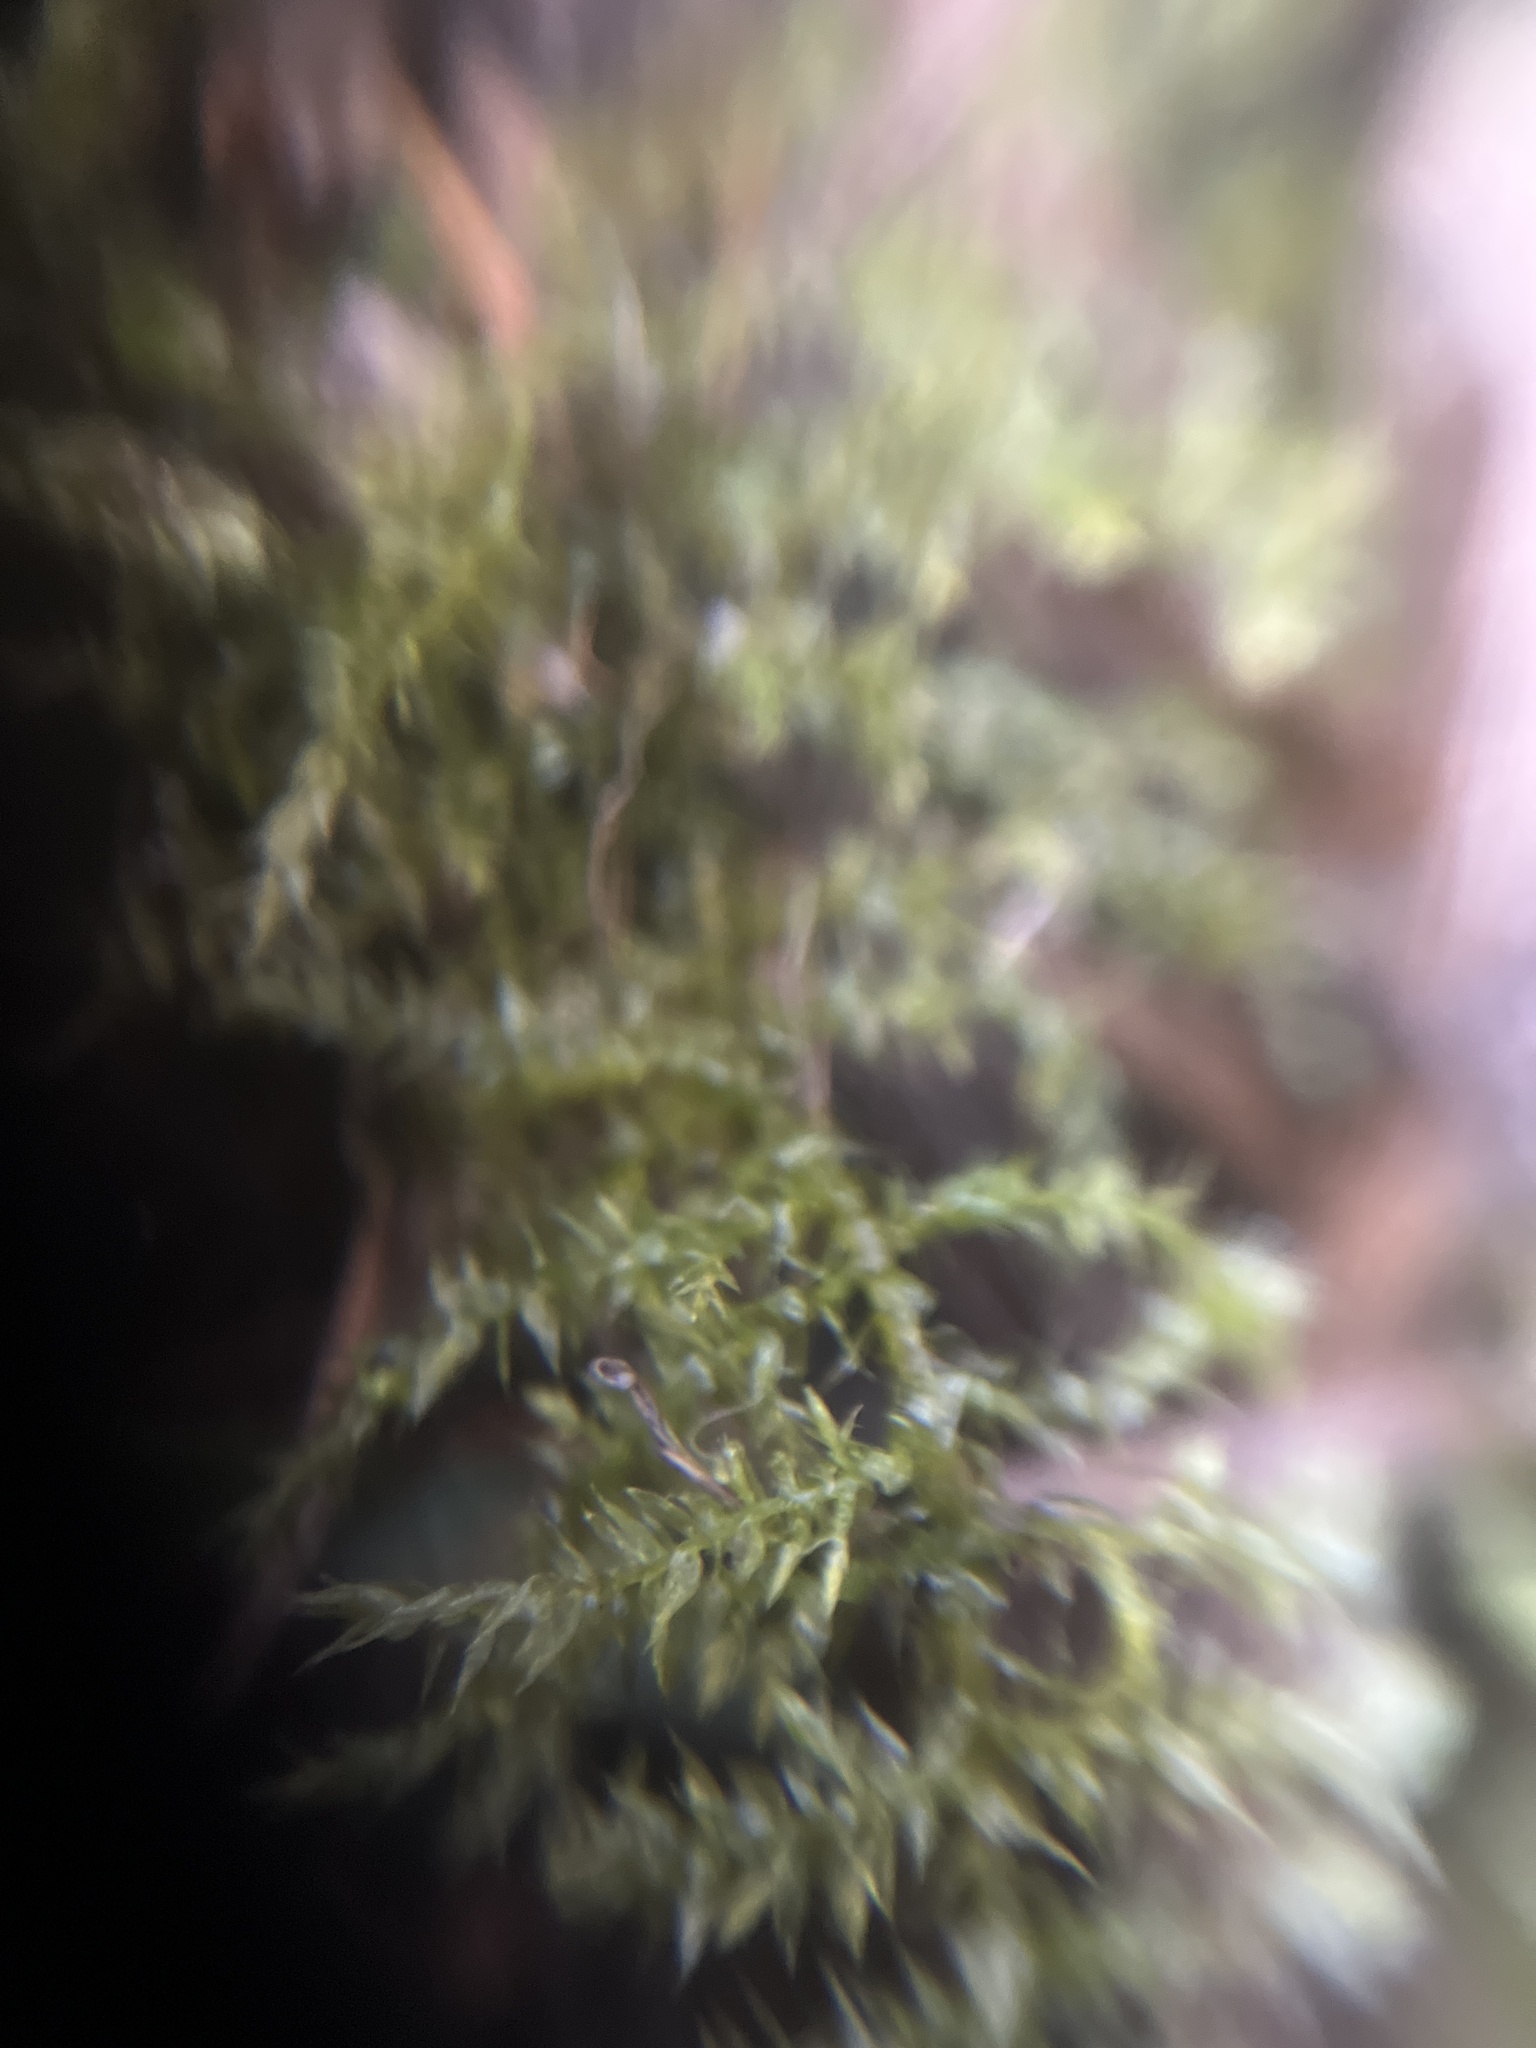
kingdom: Plantae
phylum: Bryophyta
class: Bryopsida
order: Hypnales
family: Brachytheciaceae
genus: Kindbergia
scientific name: Kindbergia praelonga
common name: Slender beaked moss
